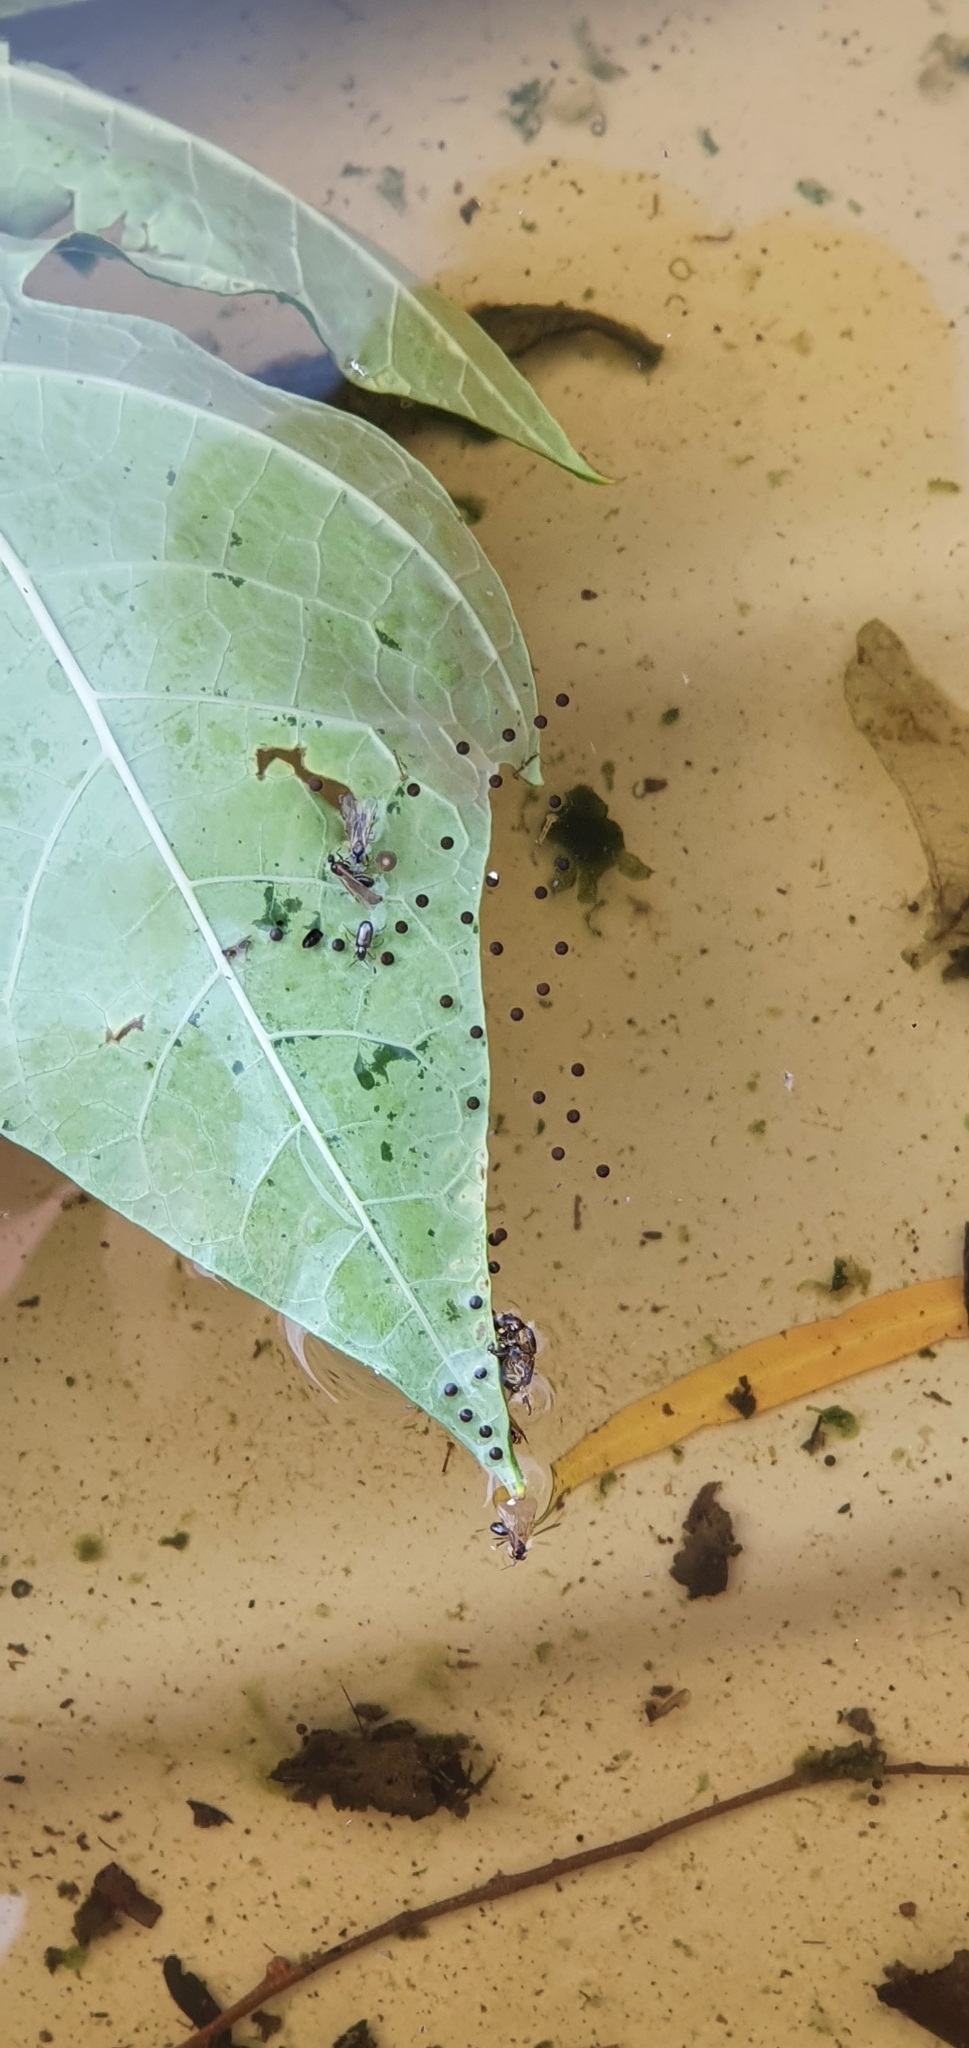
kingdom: Animalia
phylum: Chordata
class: Amphibia
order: Anura
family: Pelodryadidae
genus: Ranoidea
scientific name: Ranoidea caerulea
